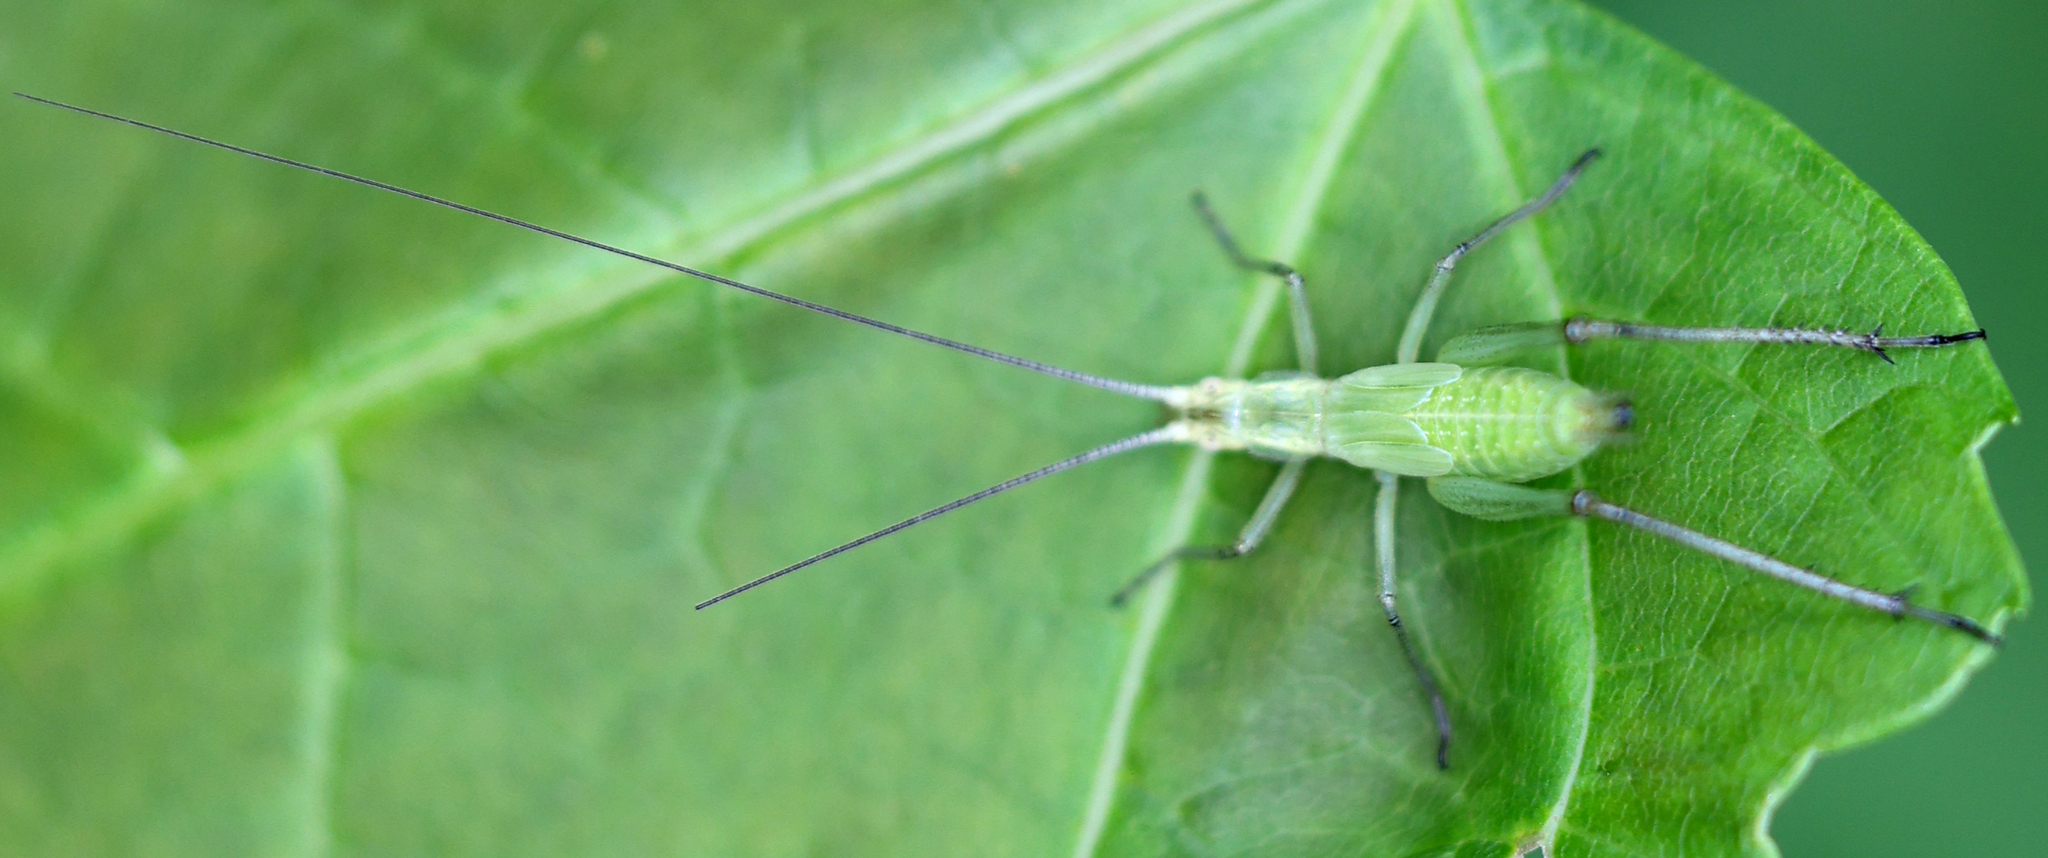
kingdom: Animalia
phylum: Arthropoda
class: Insecta
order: Orthoptera
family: Gryllidae
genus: Oecanthus
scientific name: Oecanthus nigricornis
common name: Black-horned tree cricket
